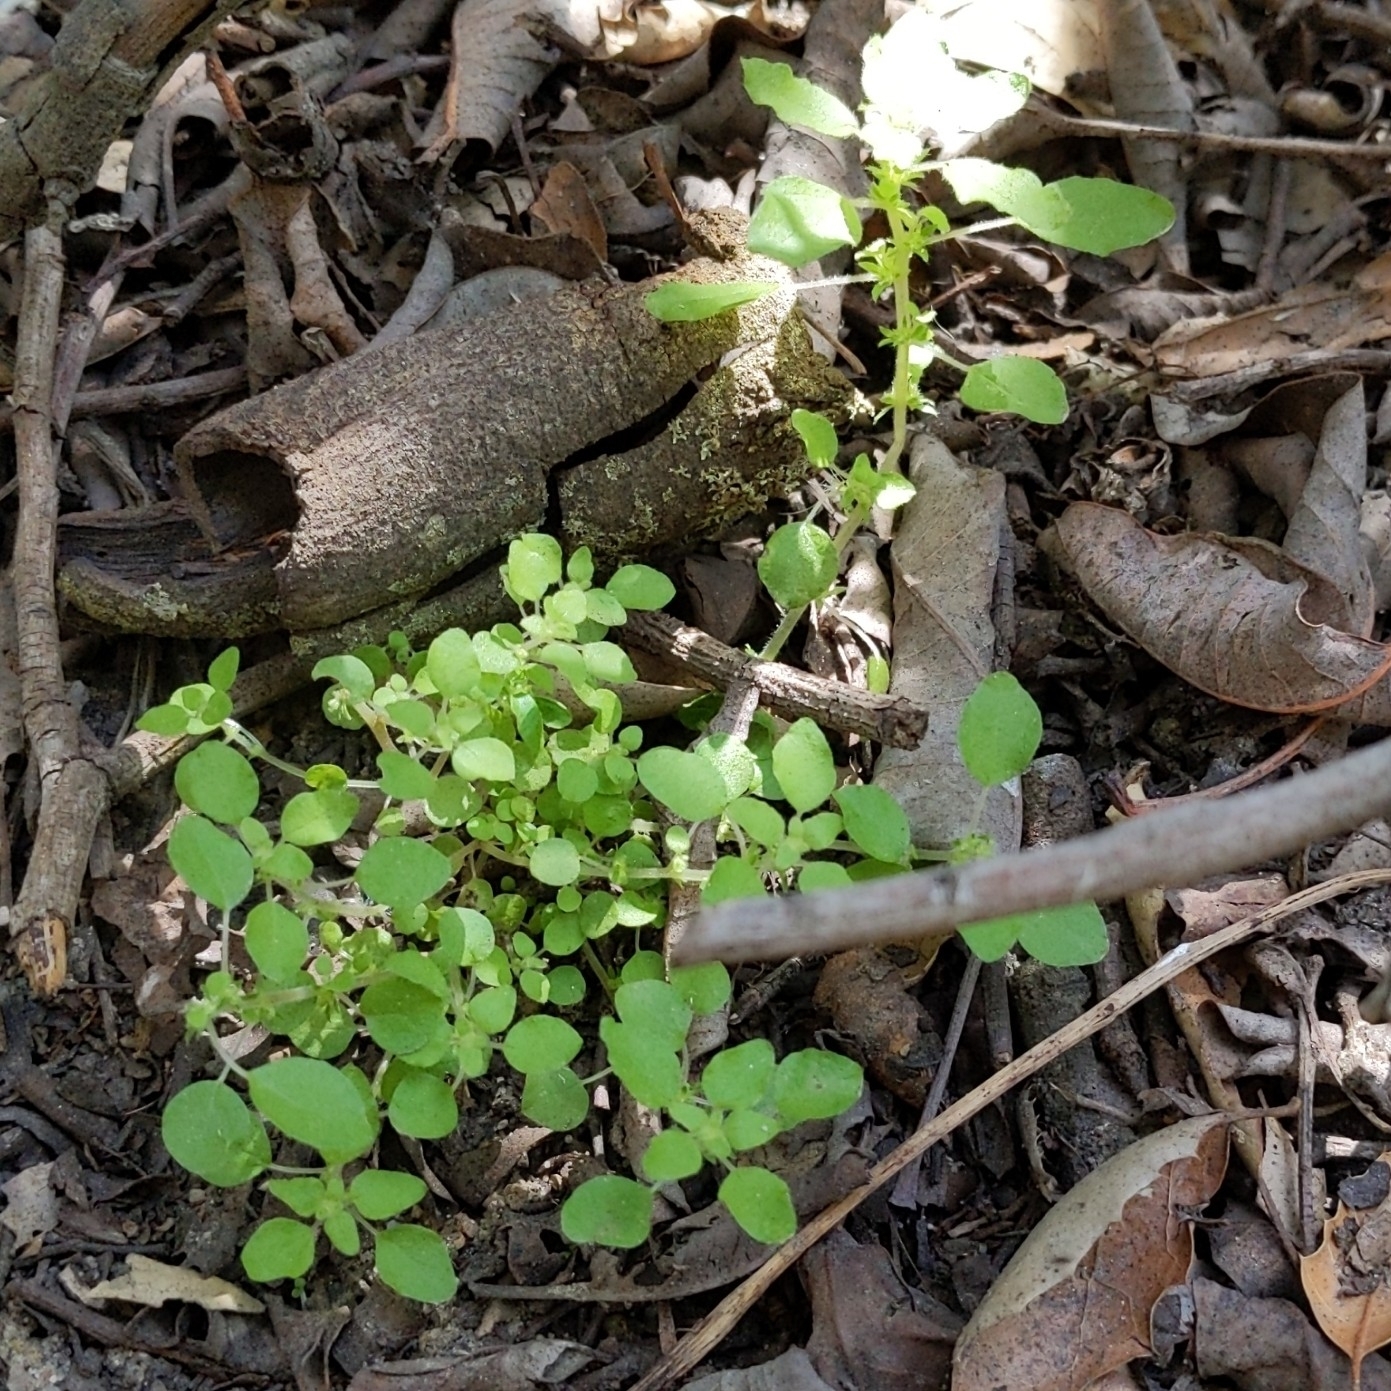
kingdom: Plantae
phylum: Tracheophyta
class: Magnoliopsida
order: Rosales
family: Urticaceae
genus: Parietaria
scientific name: Parietaria hespera
